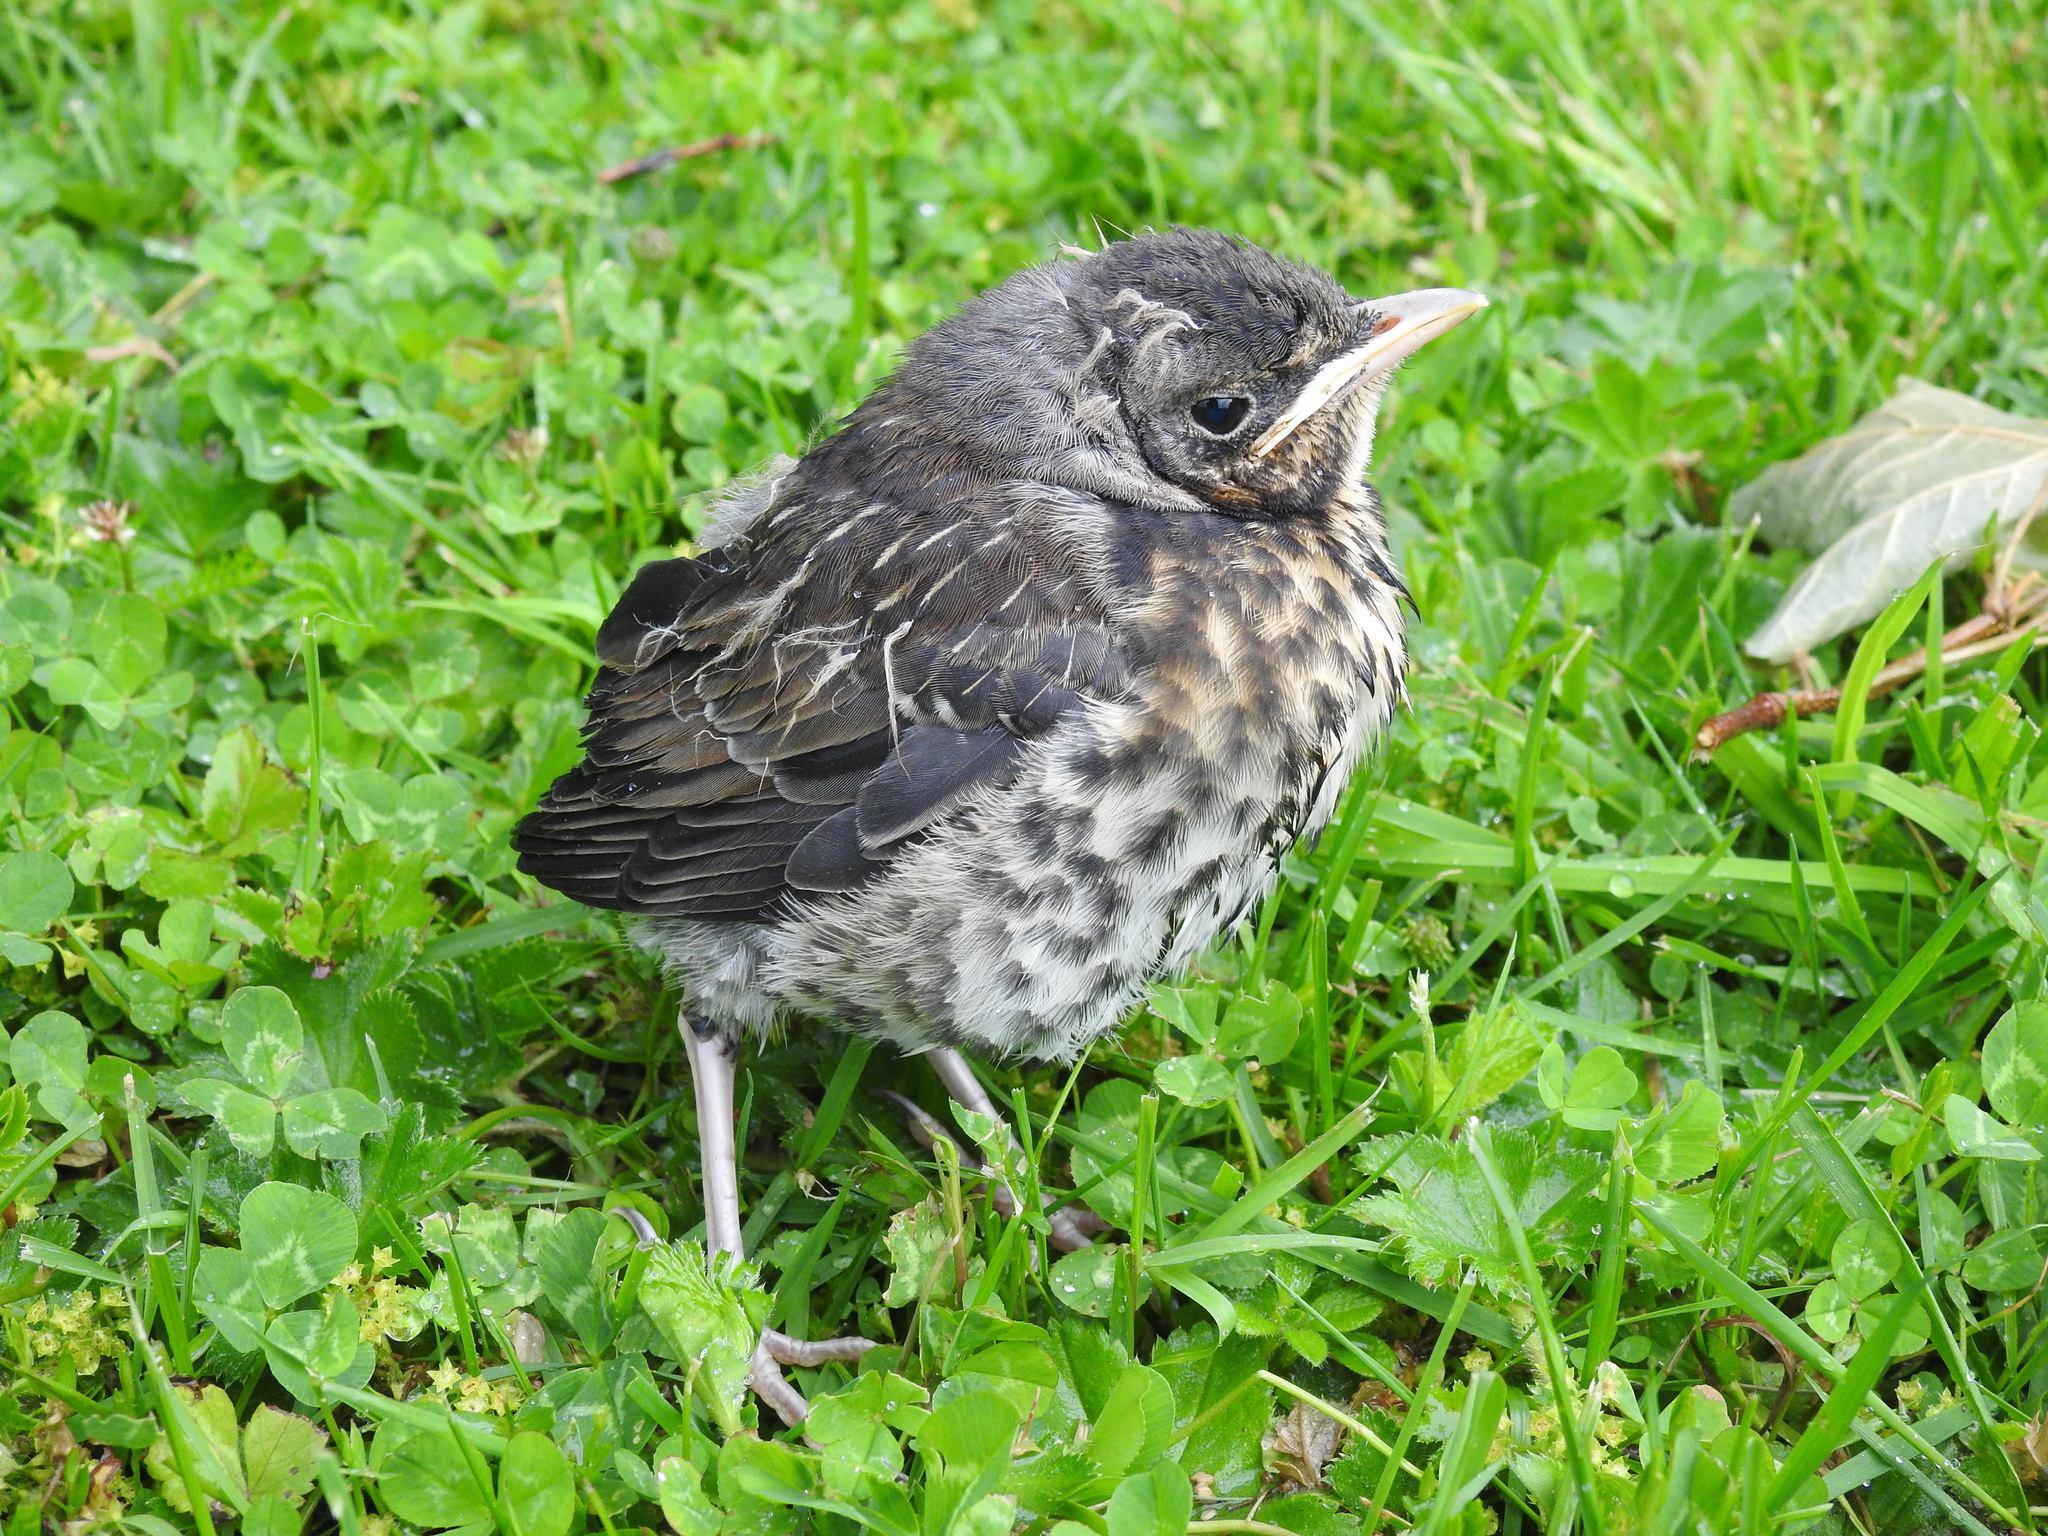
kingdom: Animalia
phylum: Chordata
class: Aves
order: Passeriformes
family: Turdidae
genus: Turdus
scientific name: Turdus pilaris
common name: Fieldfare
